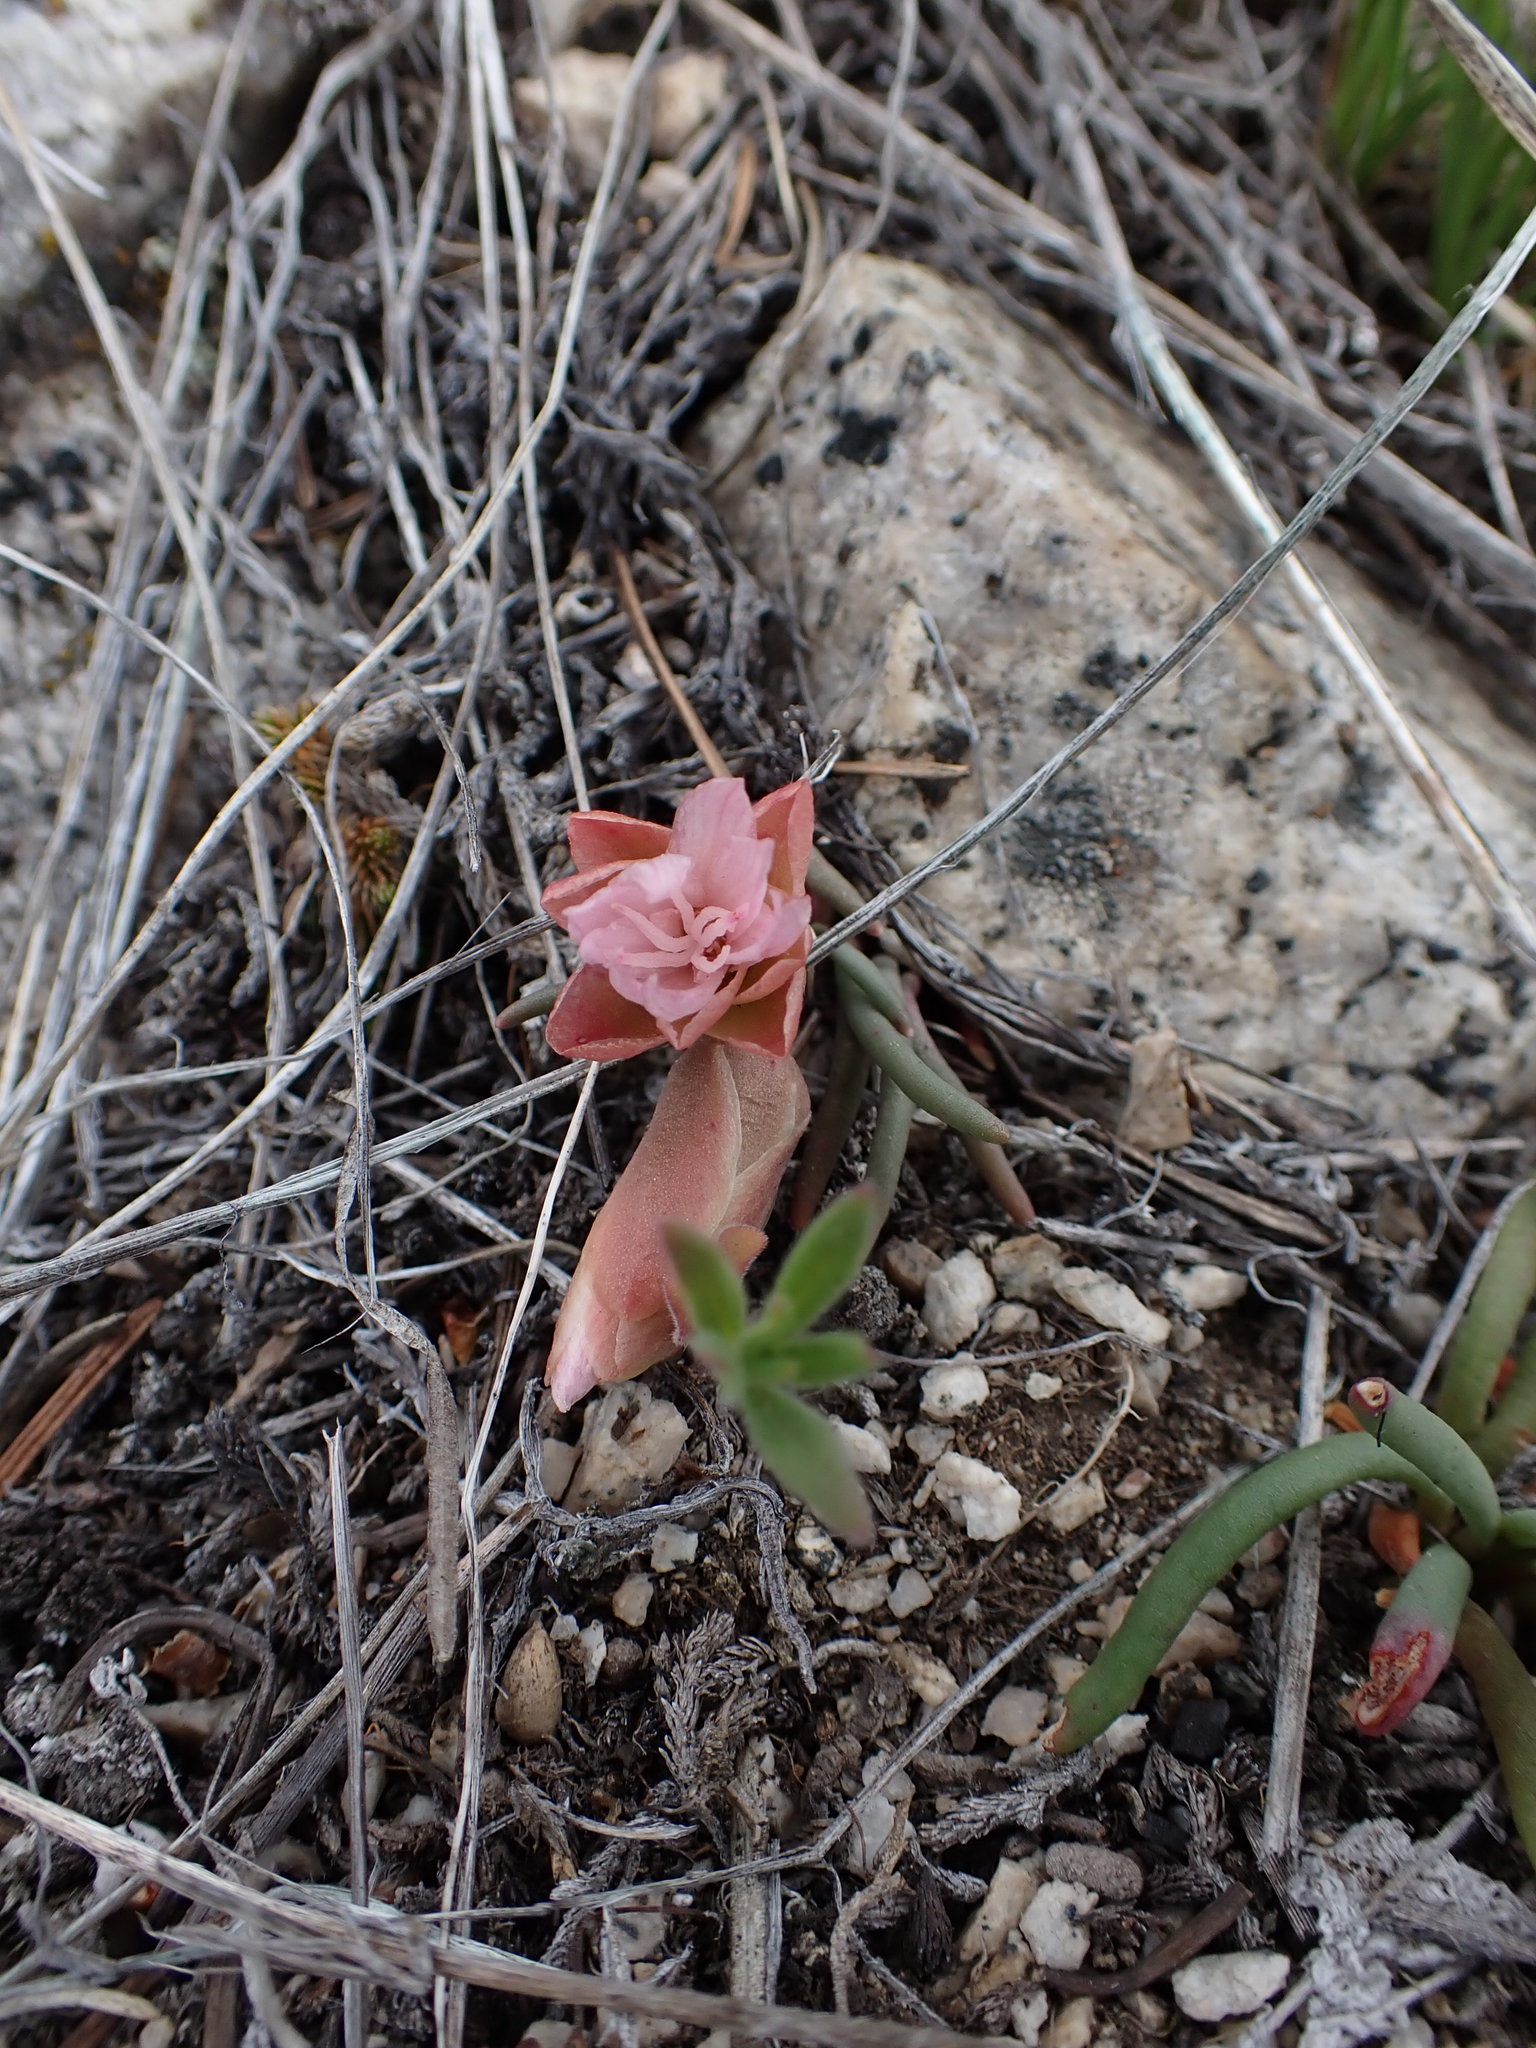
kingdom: Plantae
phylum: Tracheophyta
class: Magnoliopsida
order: Caryophyllales
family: Montiaceae
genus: Lewisia
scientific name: Lewisia rediviva
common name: Bitter-root
